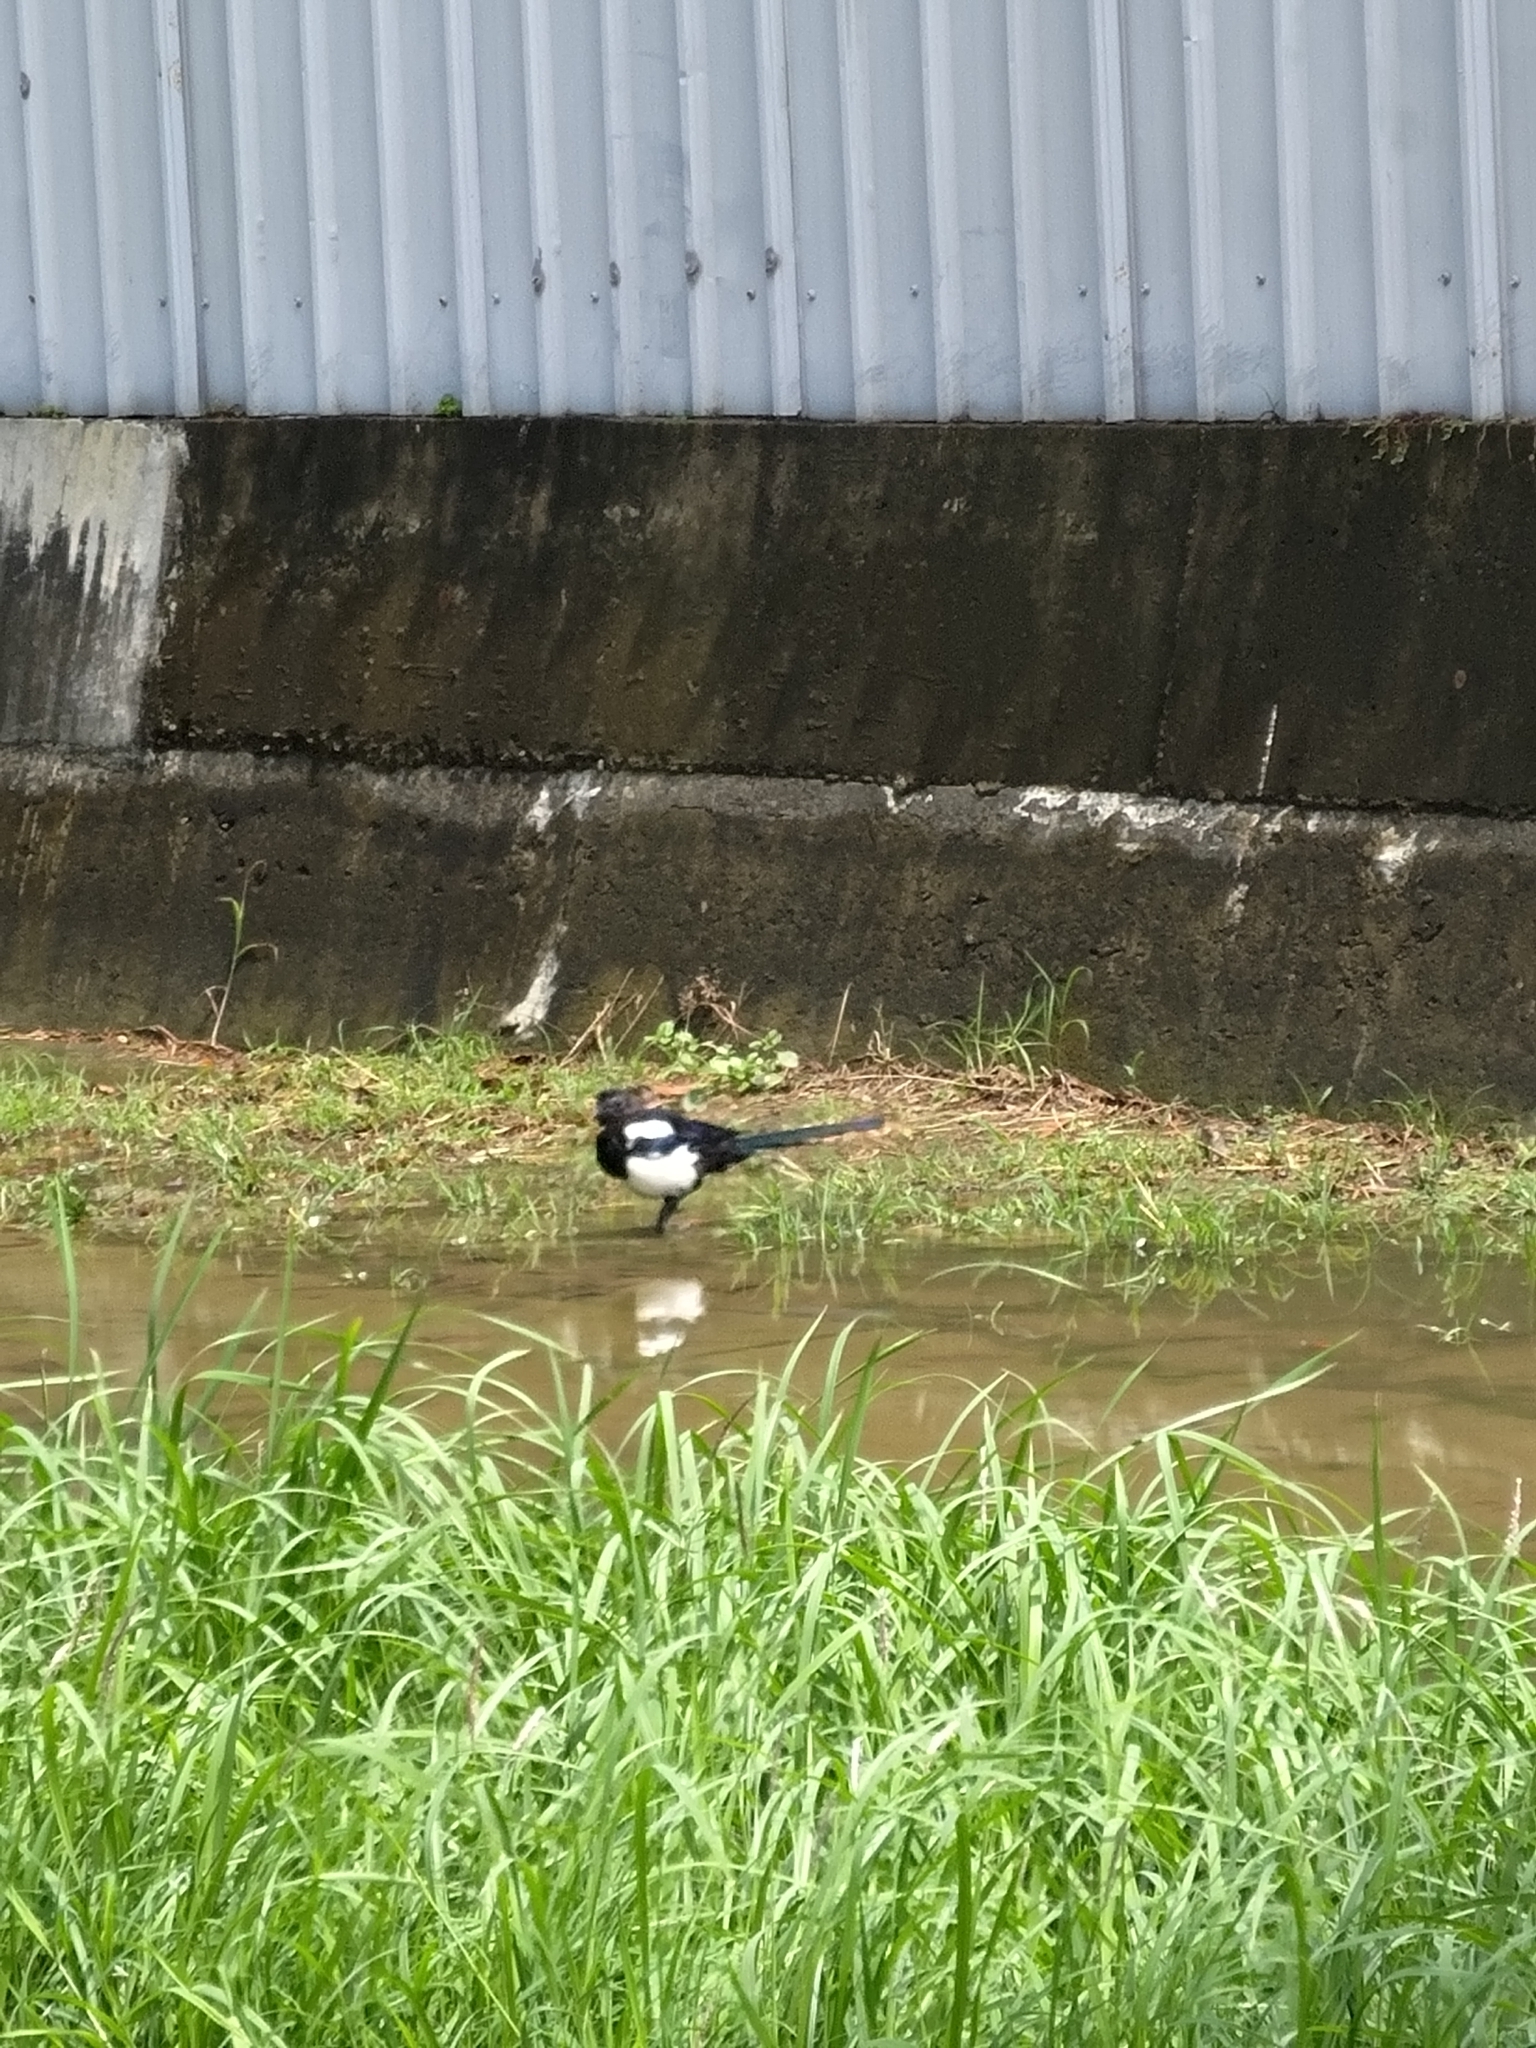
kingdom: Animalia
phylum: Chordata
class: Aves
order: Passeriformes
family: Corvidae
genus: Pica
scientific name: Pica serica
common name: Oriental magpie
